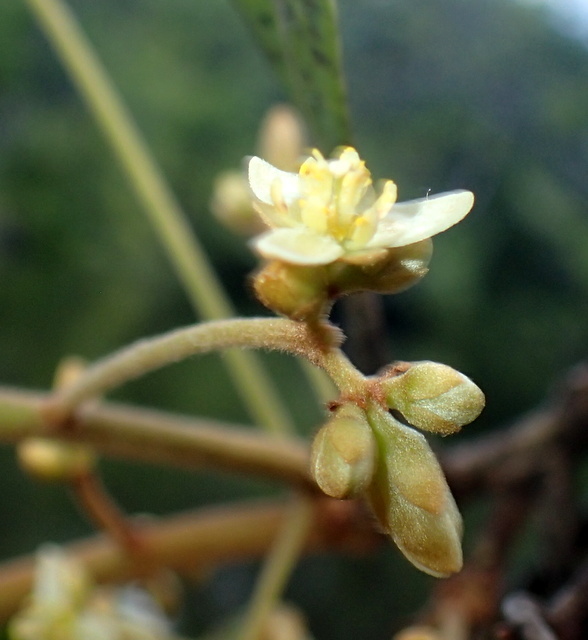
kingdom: Plantae
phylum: Tracheophyta
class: Magnoliopsida
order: Laurales
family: Lauraceae
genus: Persea
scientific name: Persea palustris
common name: Swampbay
